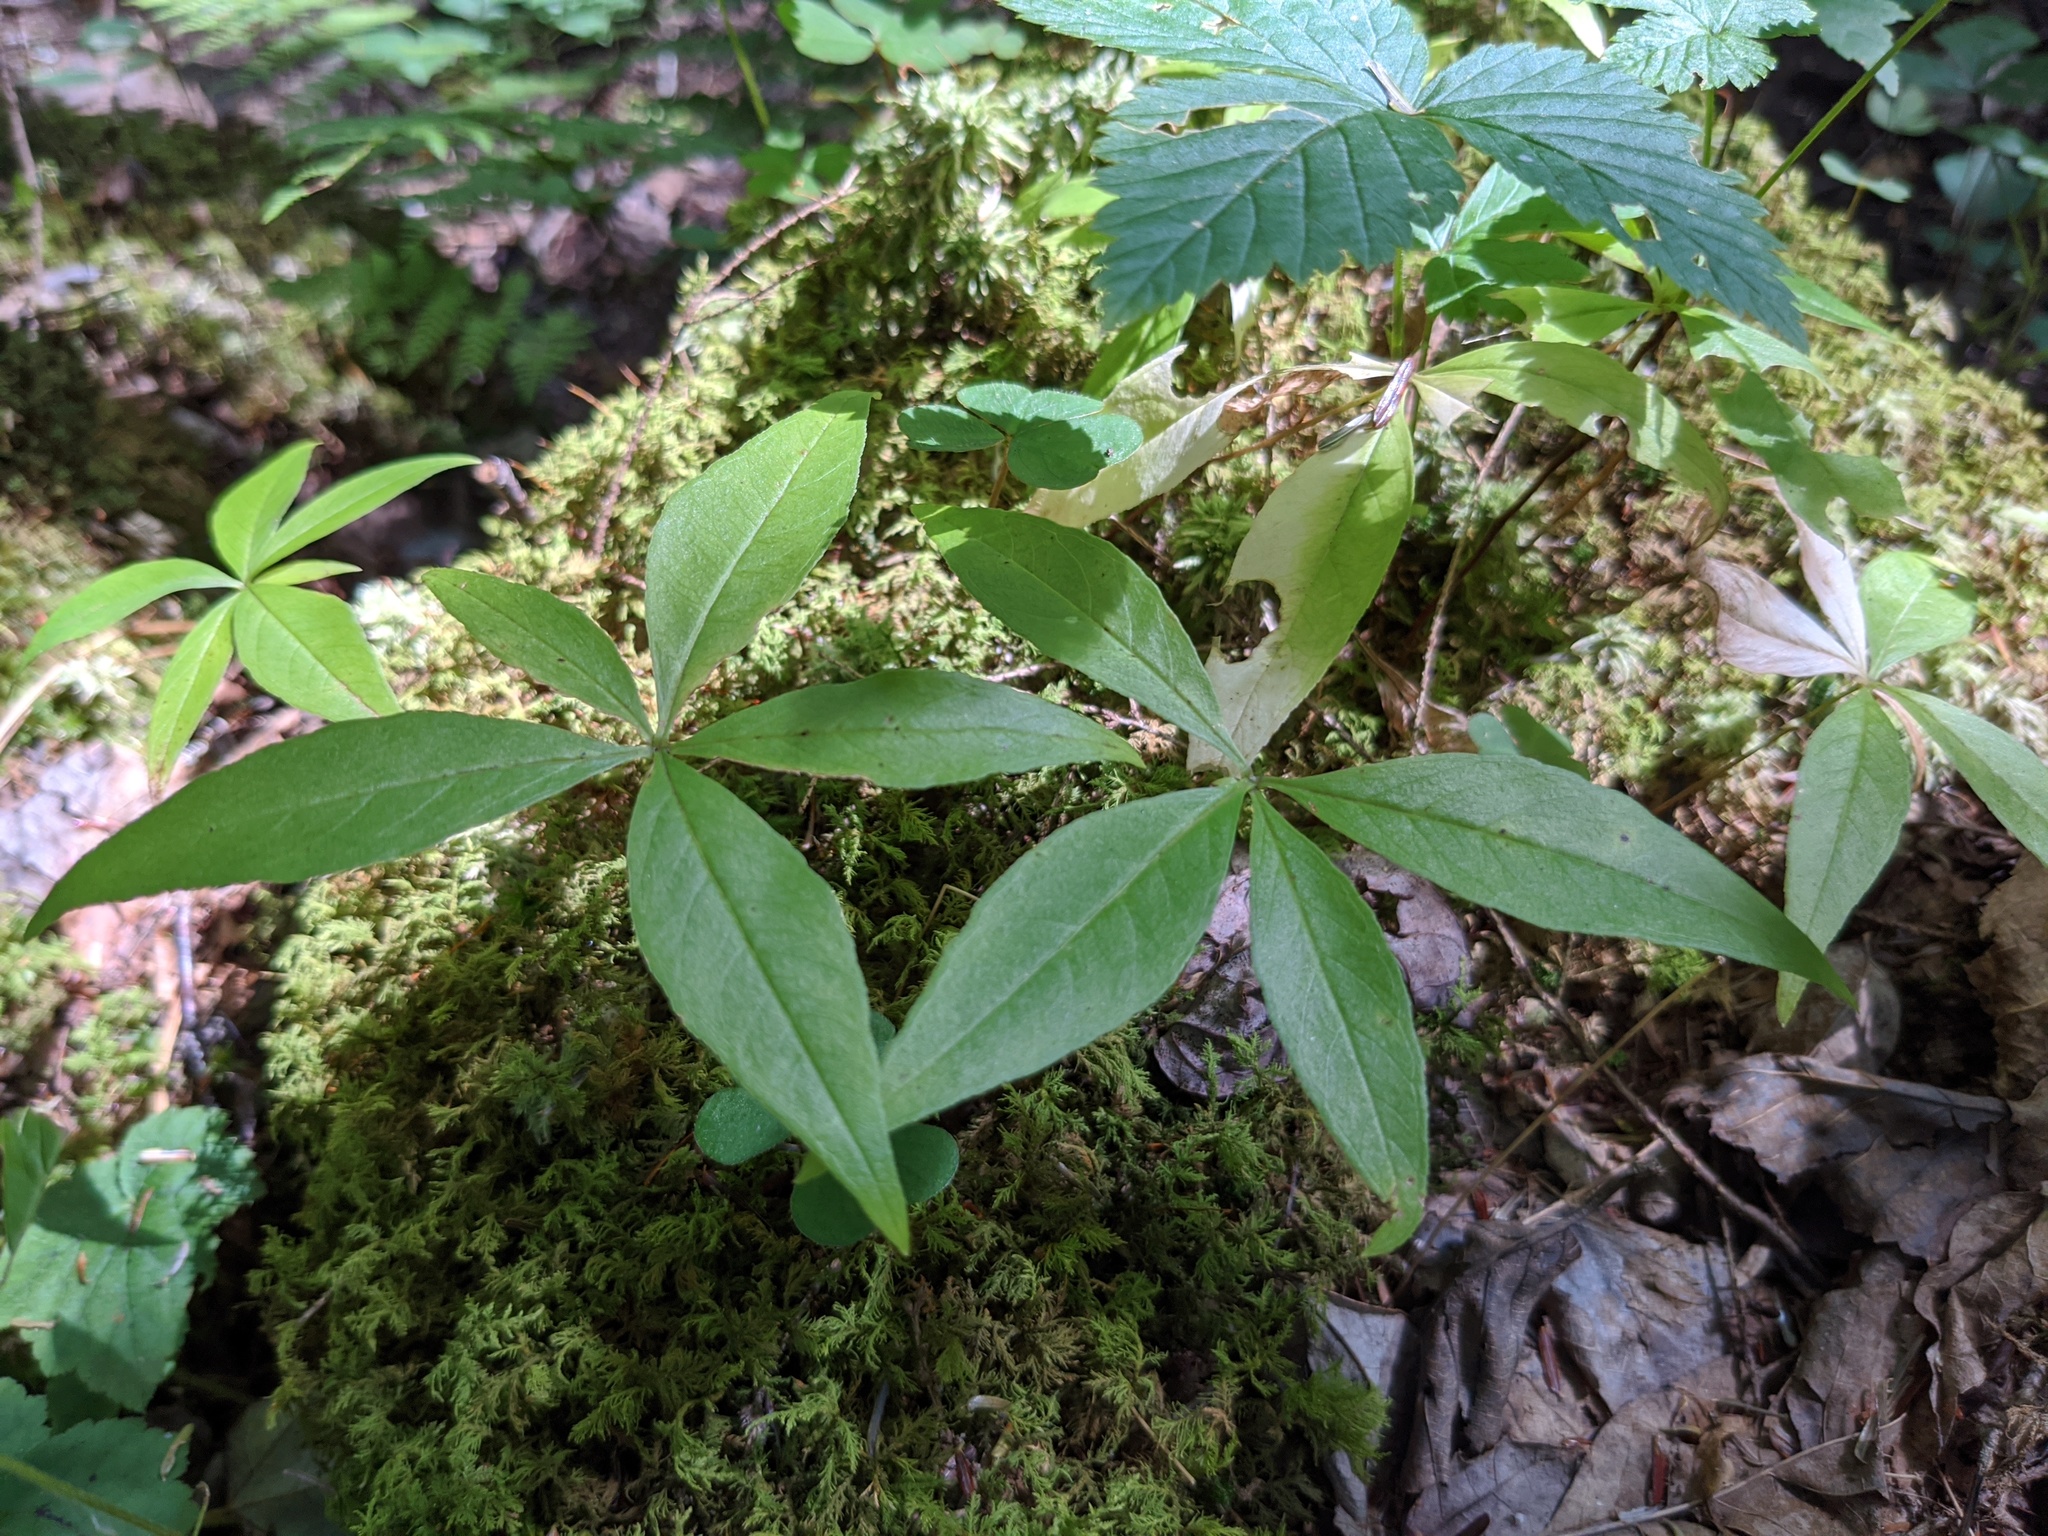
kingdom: Plantae
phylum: Tracheophyta
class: Magnoliopsida
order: Ericales
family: Primulaceae
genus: Lysimachia
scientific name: Lysimachia borealis
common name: American starflower
